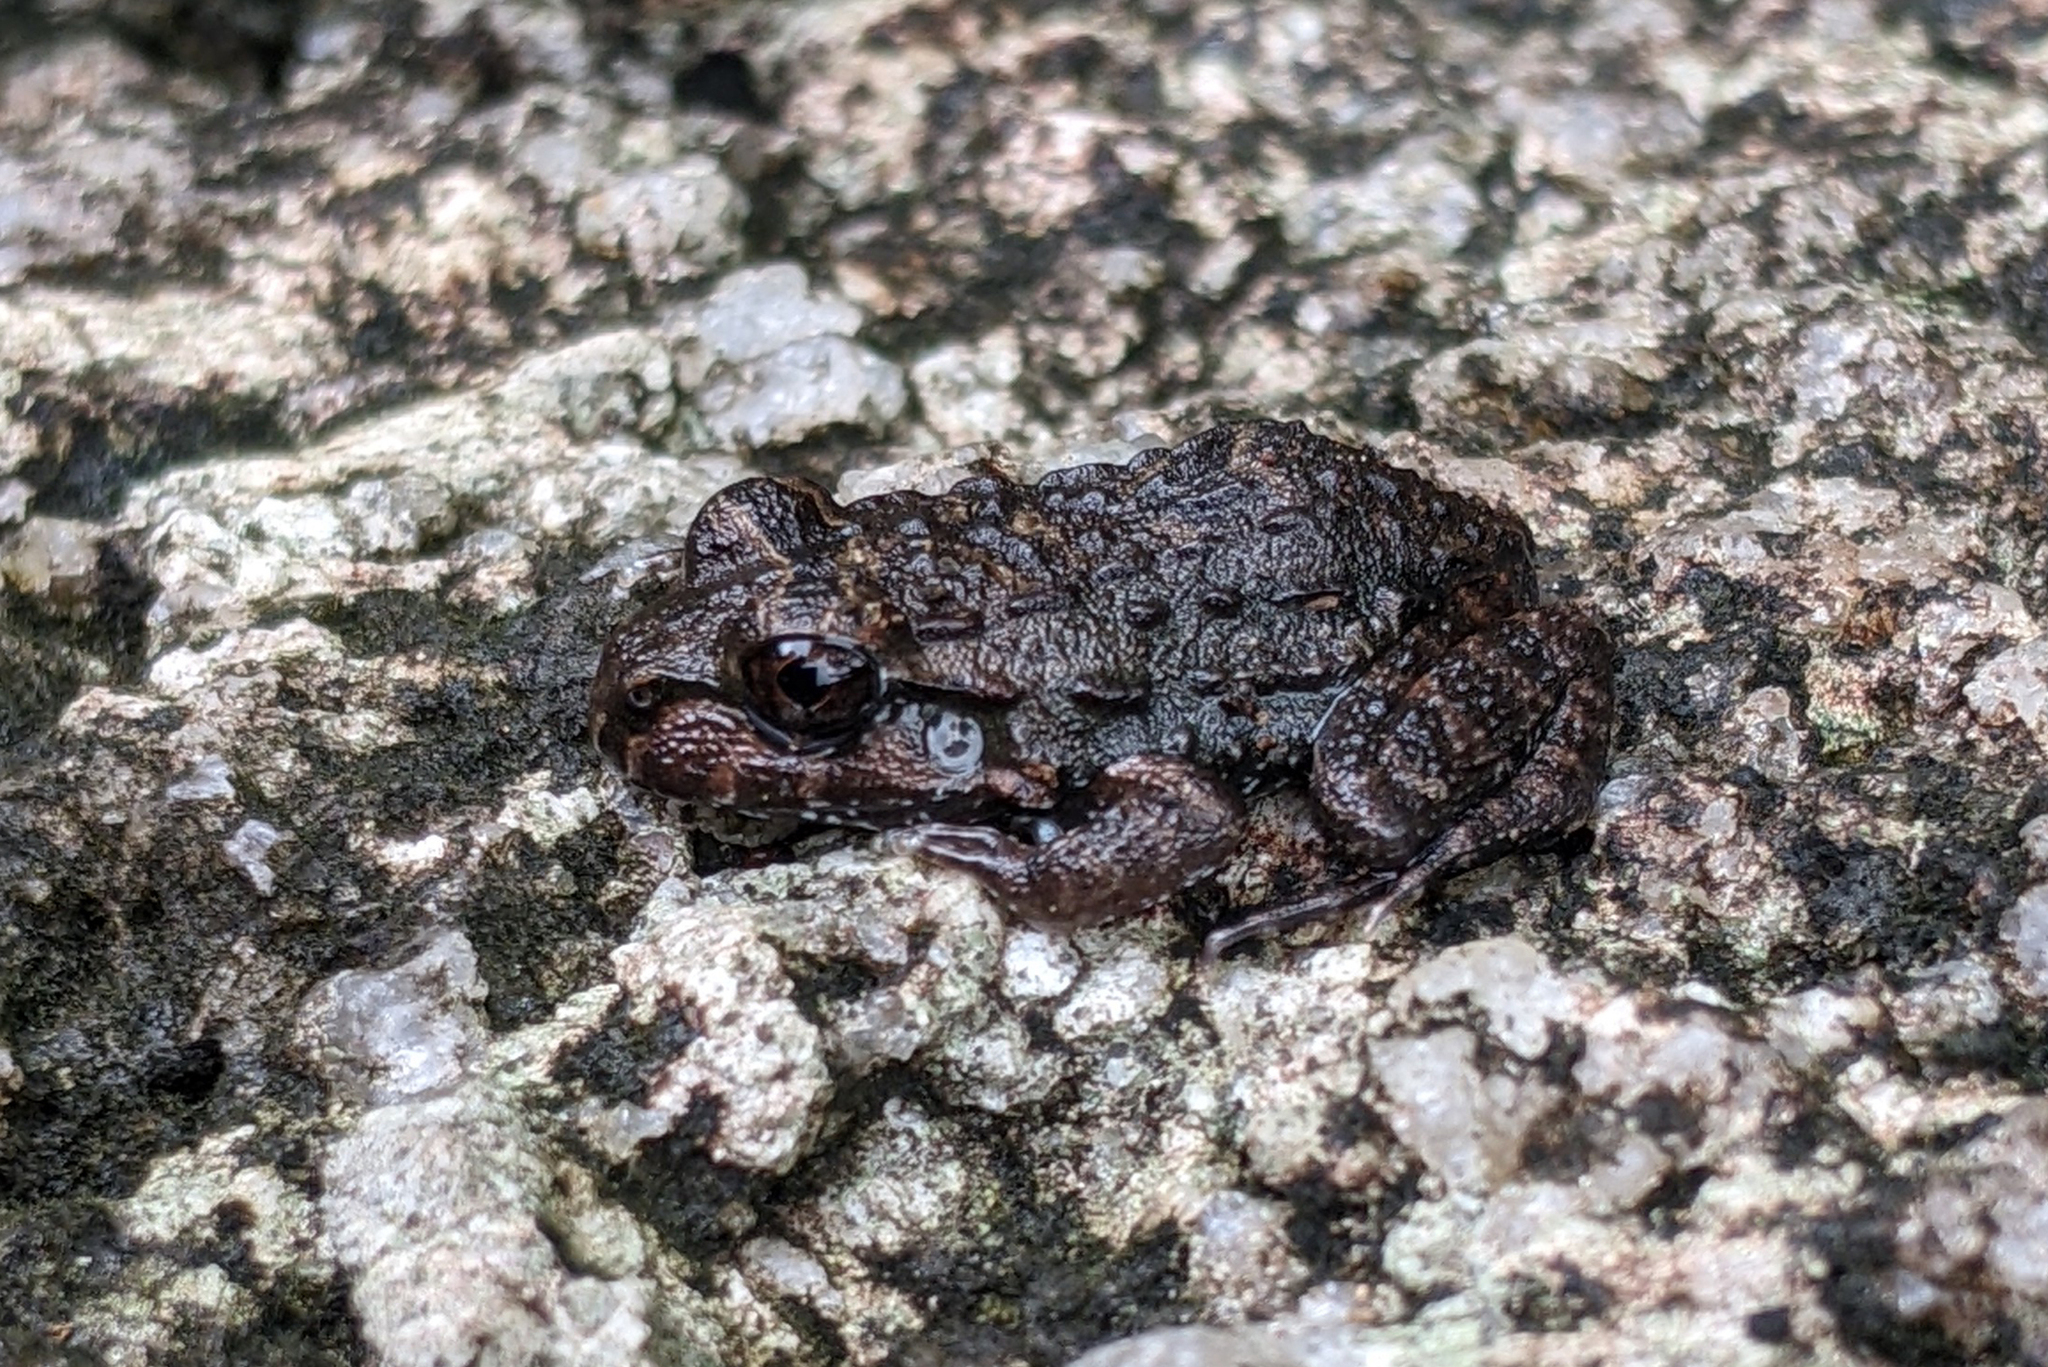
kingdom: Animalia
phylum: Chordata
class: Amphibia
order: Anura
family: Leptodactylidae
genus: Leptodactylus
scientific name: Leptodactylus myersi
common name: Myers' thin-toed frog
